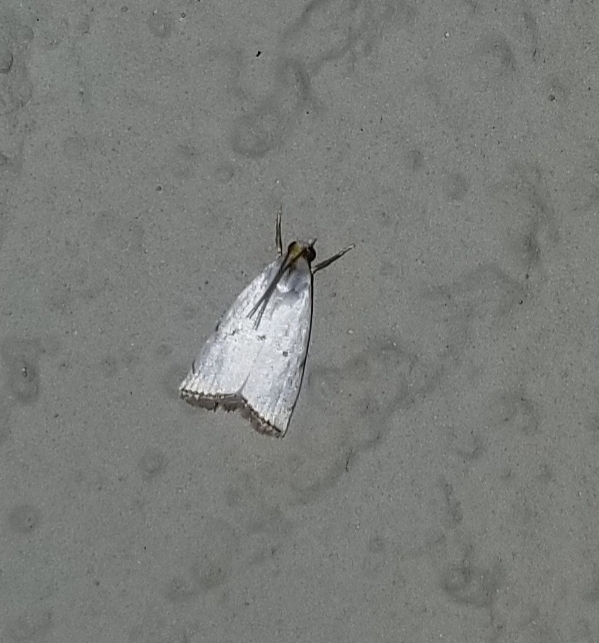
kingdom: Animalia
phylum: Arthropoda
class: Insecta
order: Lepidoptera
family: Crambidae
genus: Argyria
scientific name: Argyria pusillalis
